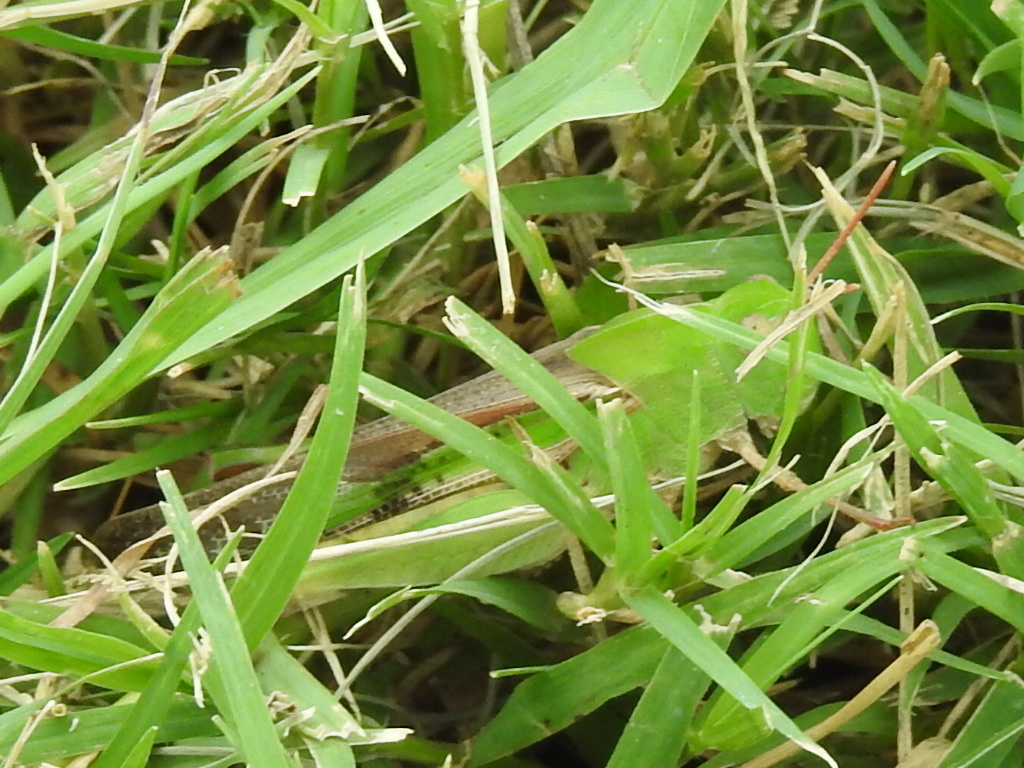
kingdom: Animalia
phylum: Arthropoda
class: Insecta
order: Orthoptera
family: Acrididae
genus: Dichromorpha
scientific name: Dichromorpha viridis
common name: Short-winged green grasshopper
